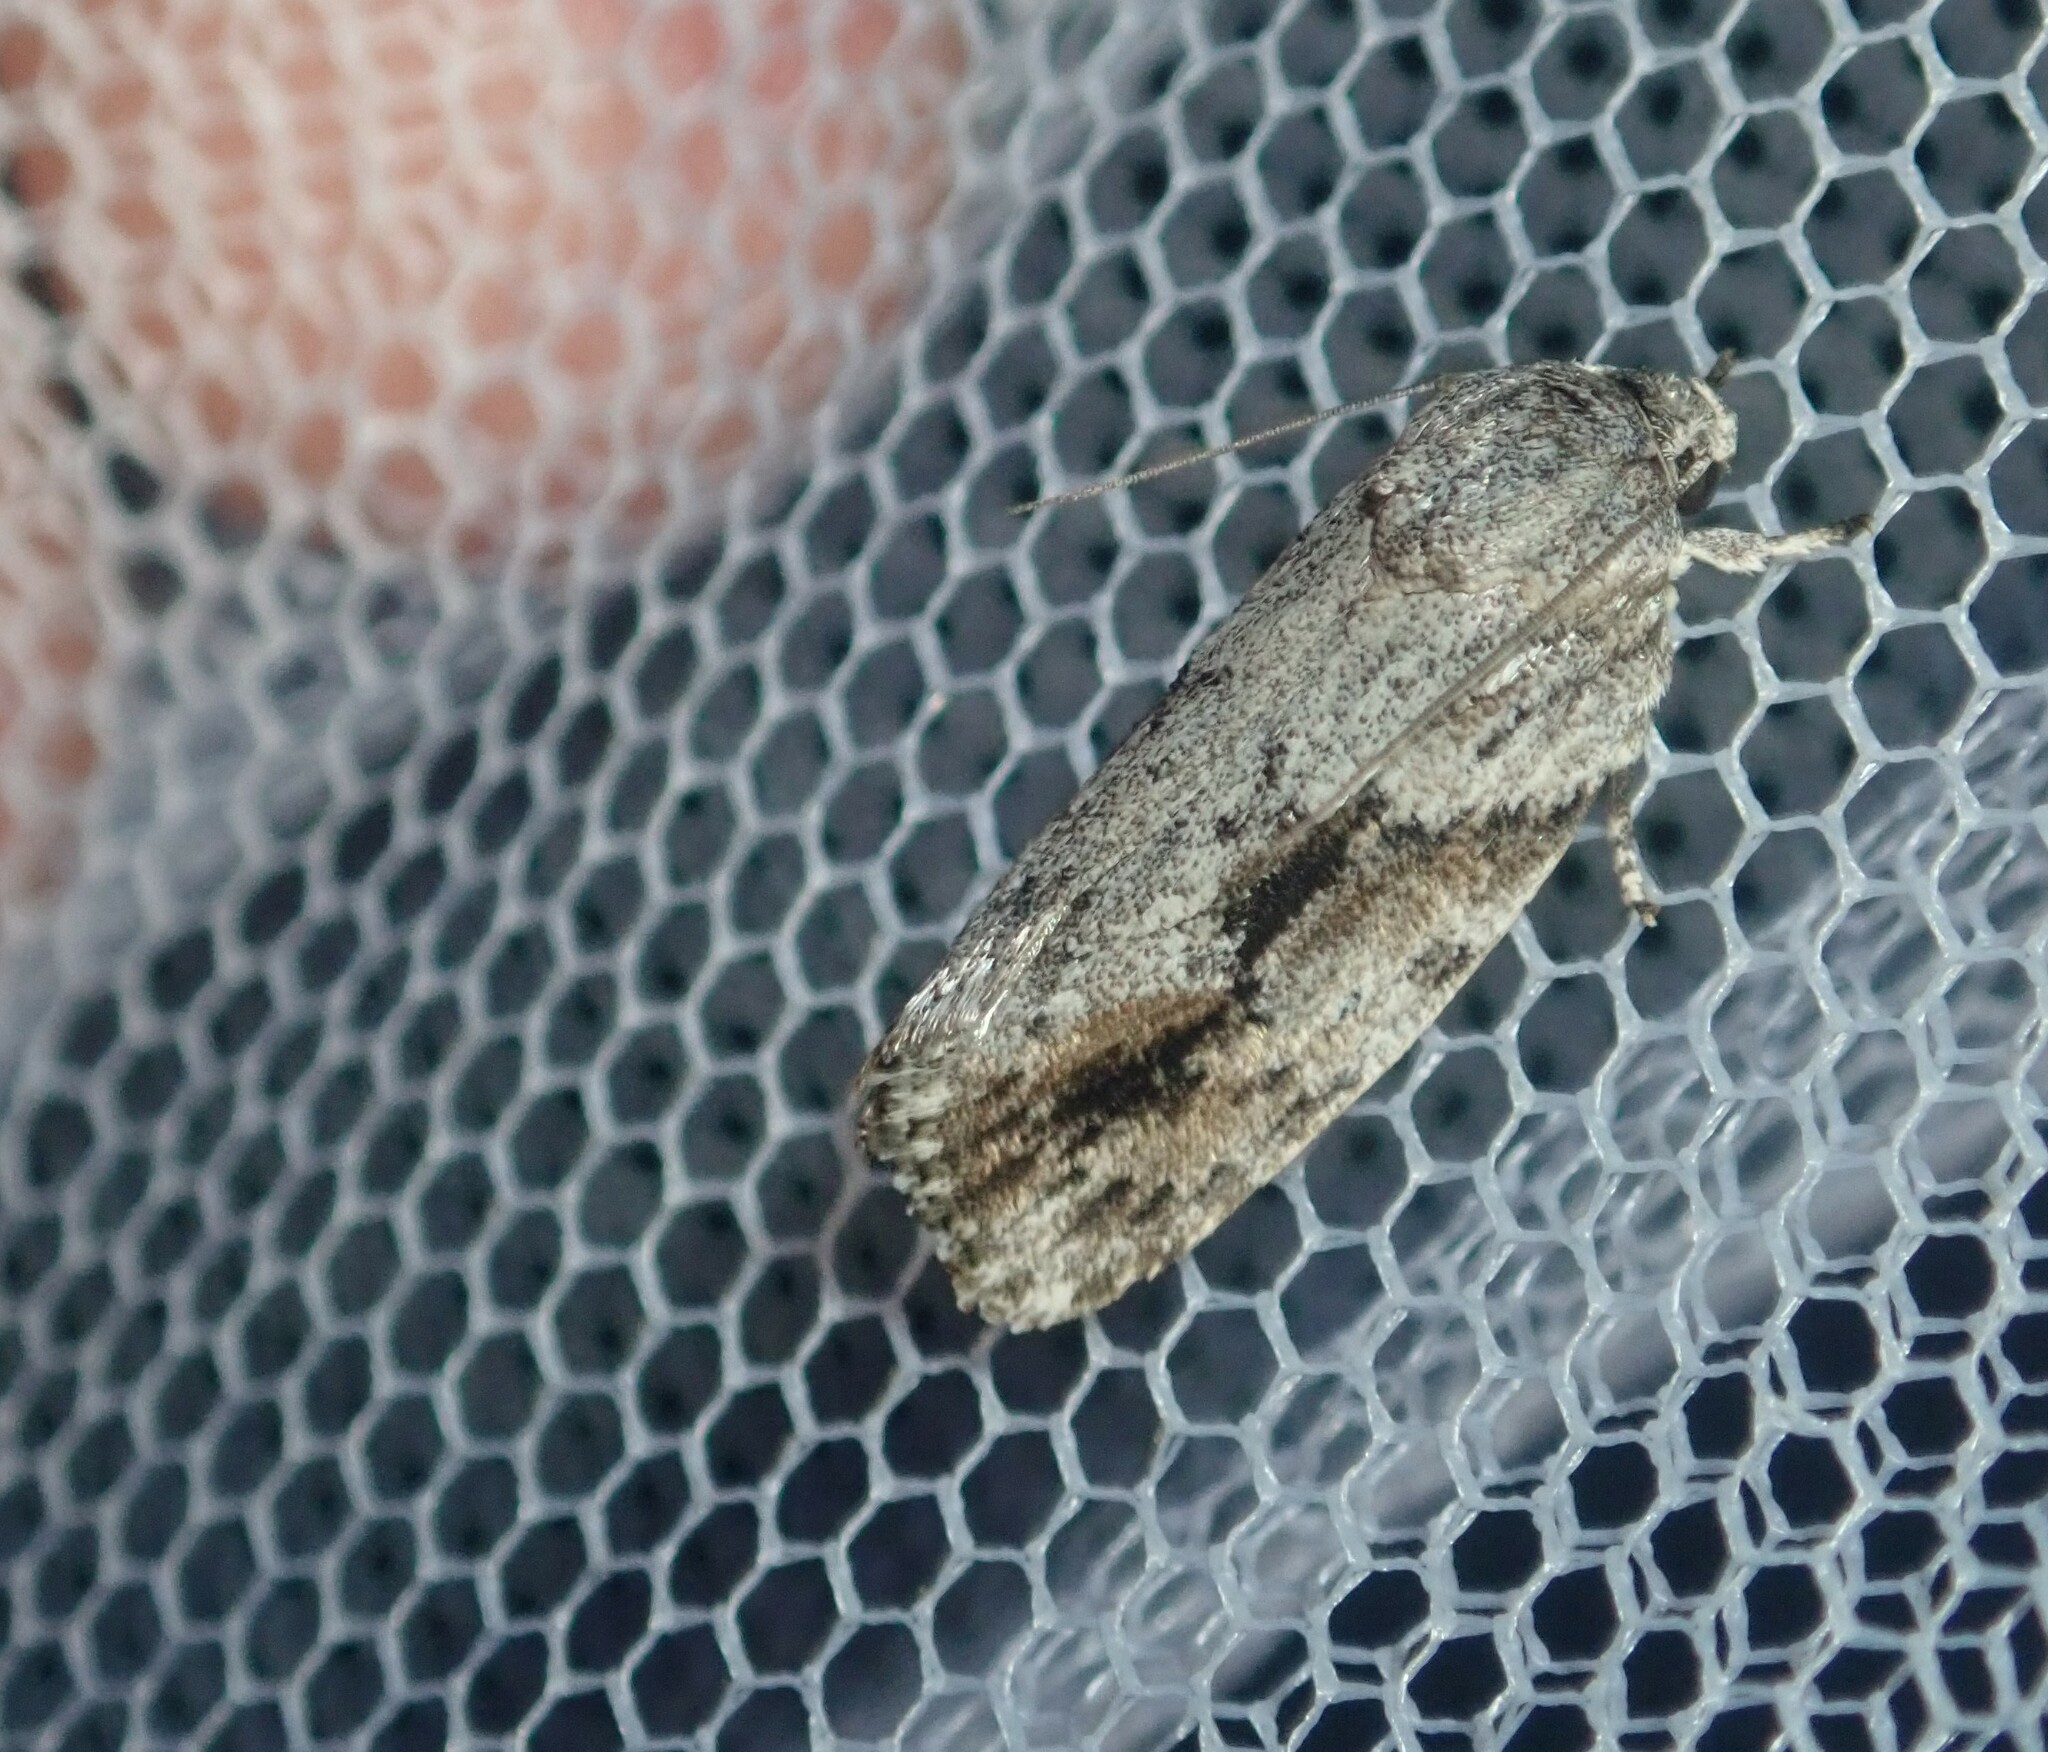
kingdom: Animalia
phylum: Arthropoda
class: Insecta
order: Lepidoptera
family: Depressariidae
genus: Agriophara
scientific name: Agriophara confertella
